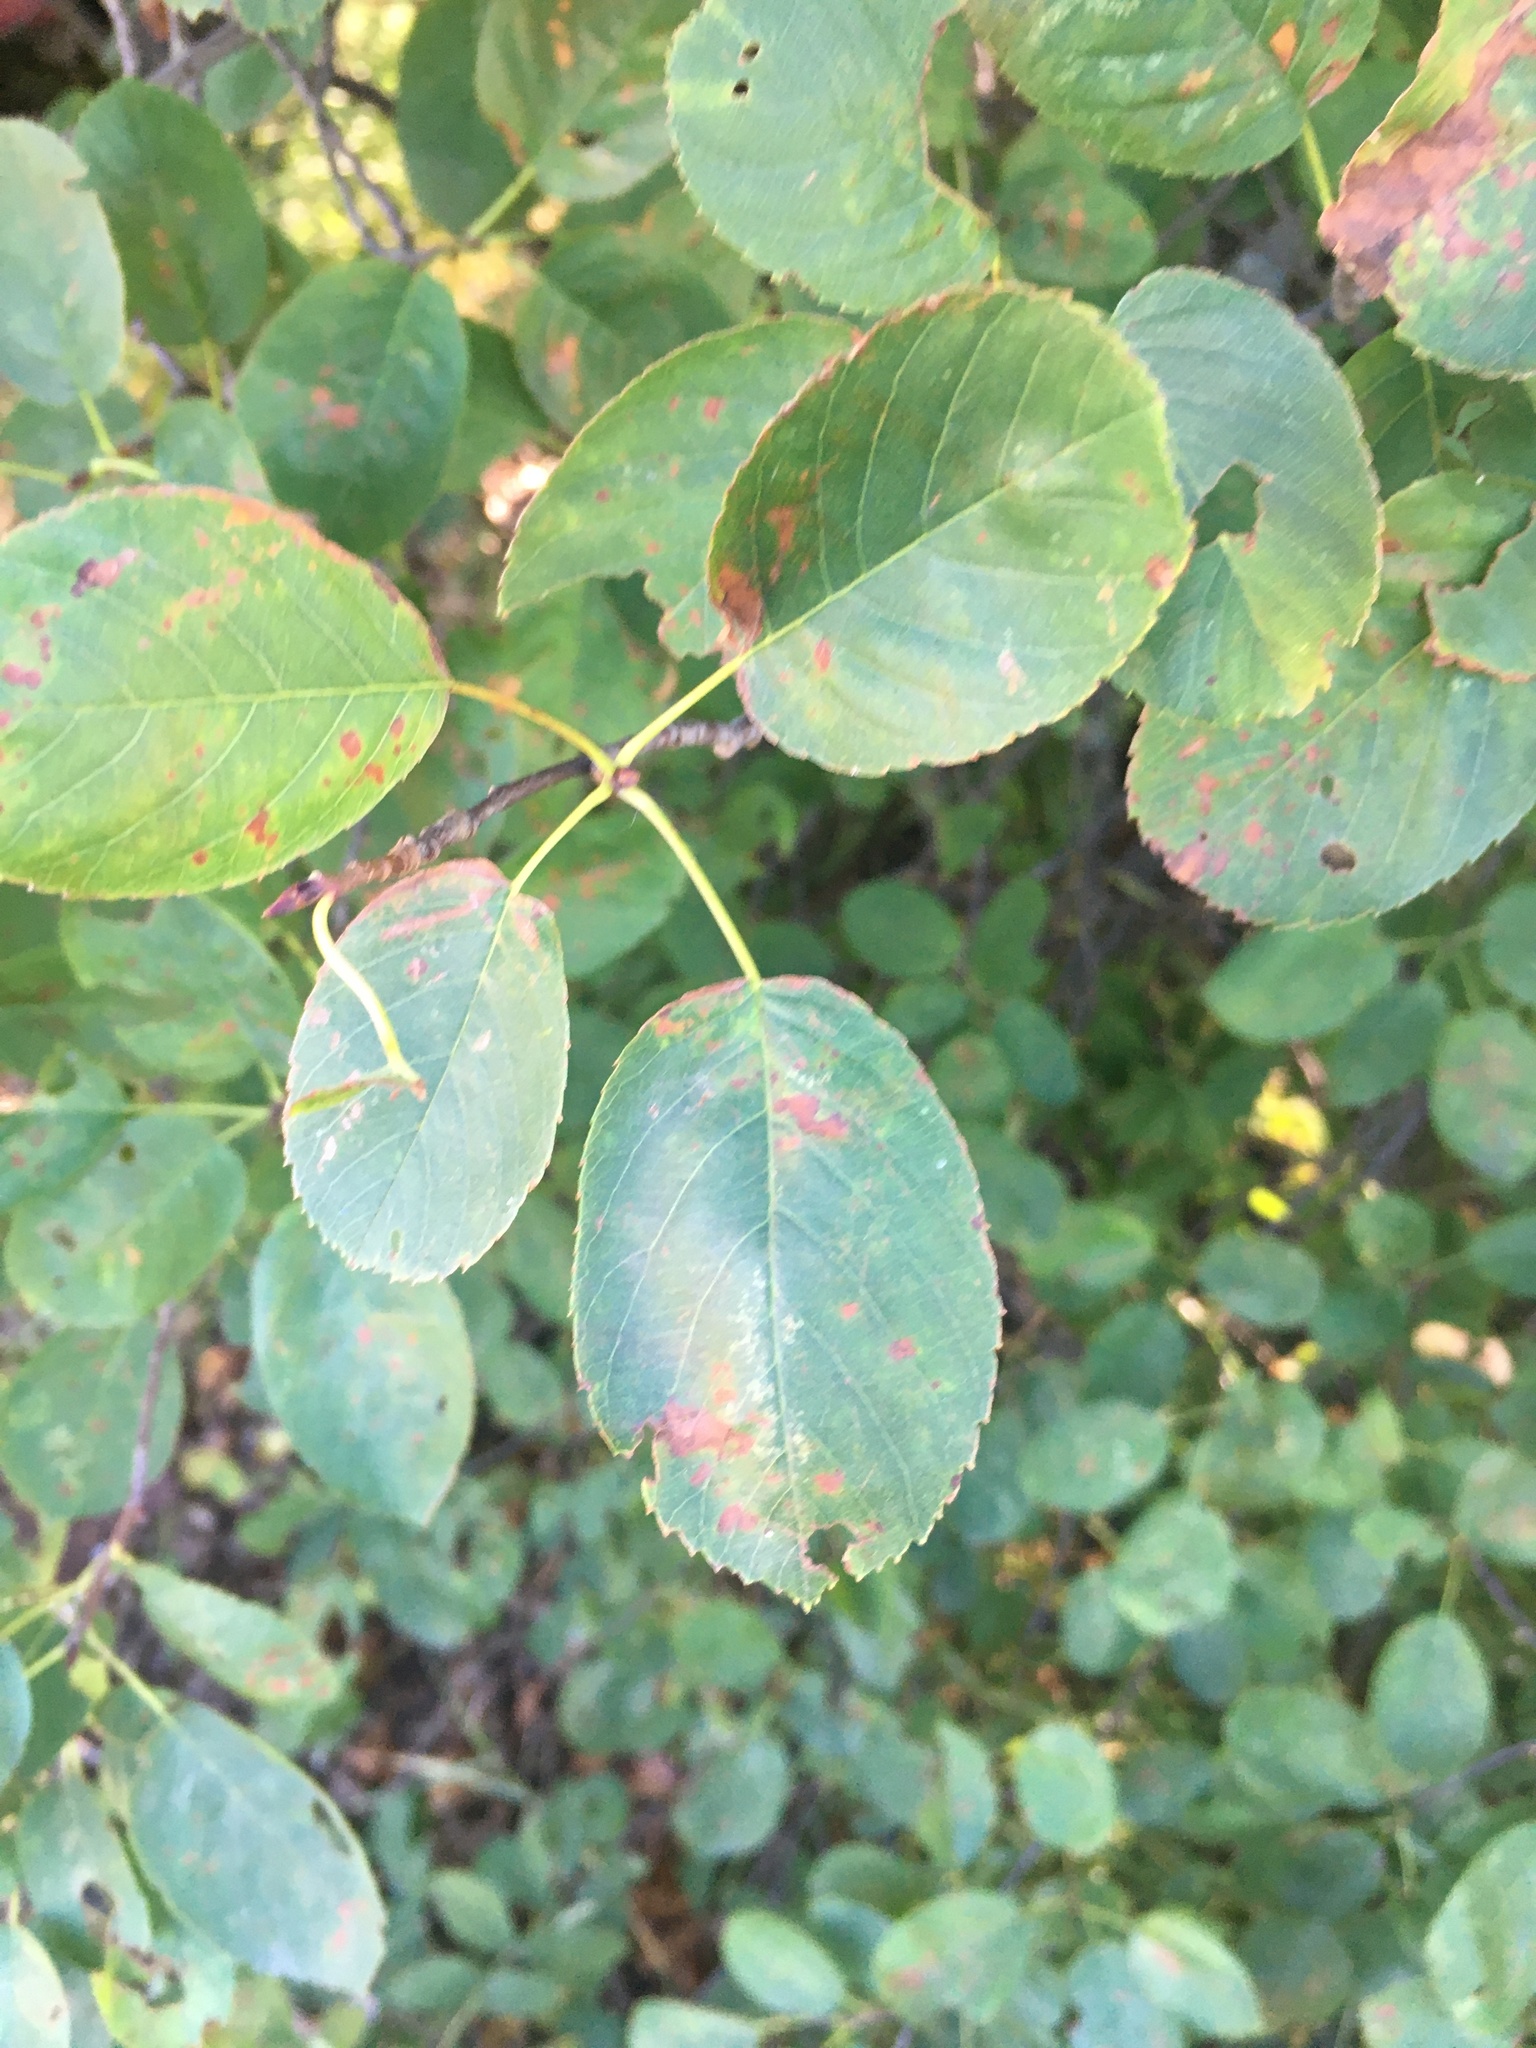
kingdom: Plantae
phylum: Tracheophyta
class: Magnoliopsida
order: Rosales
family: Rosaceae
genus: Amelanchier
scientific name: Amelanchier
